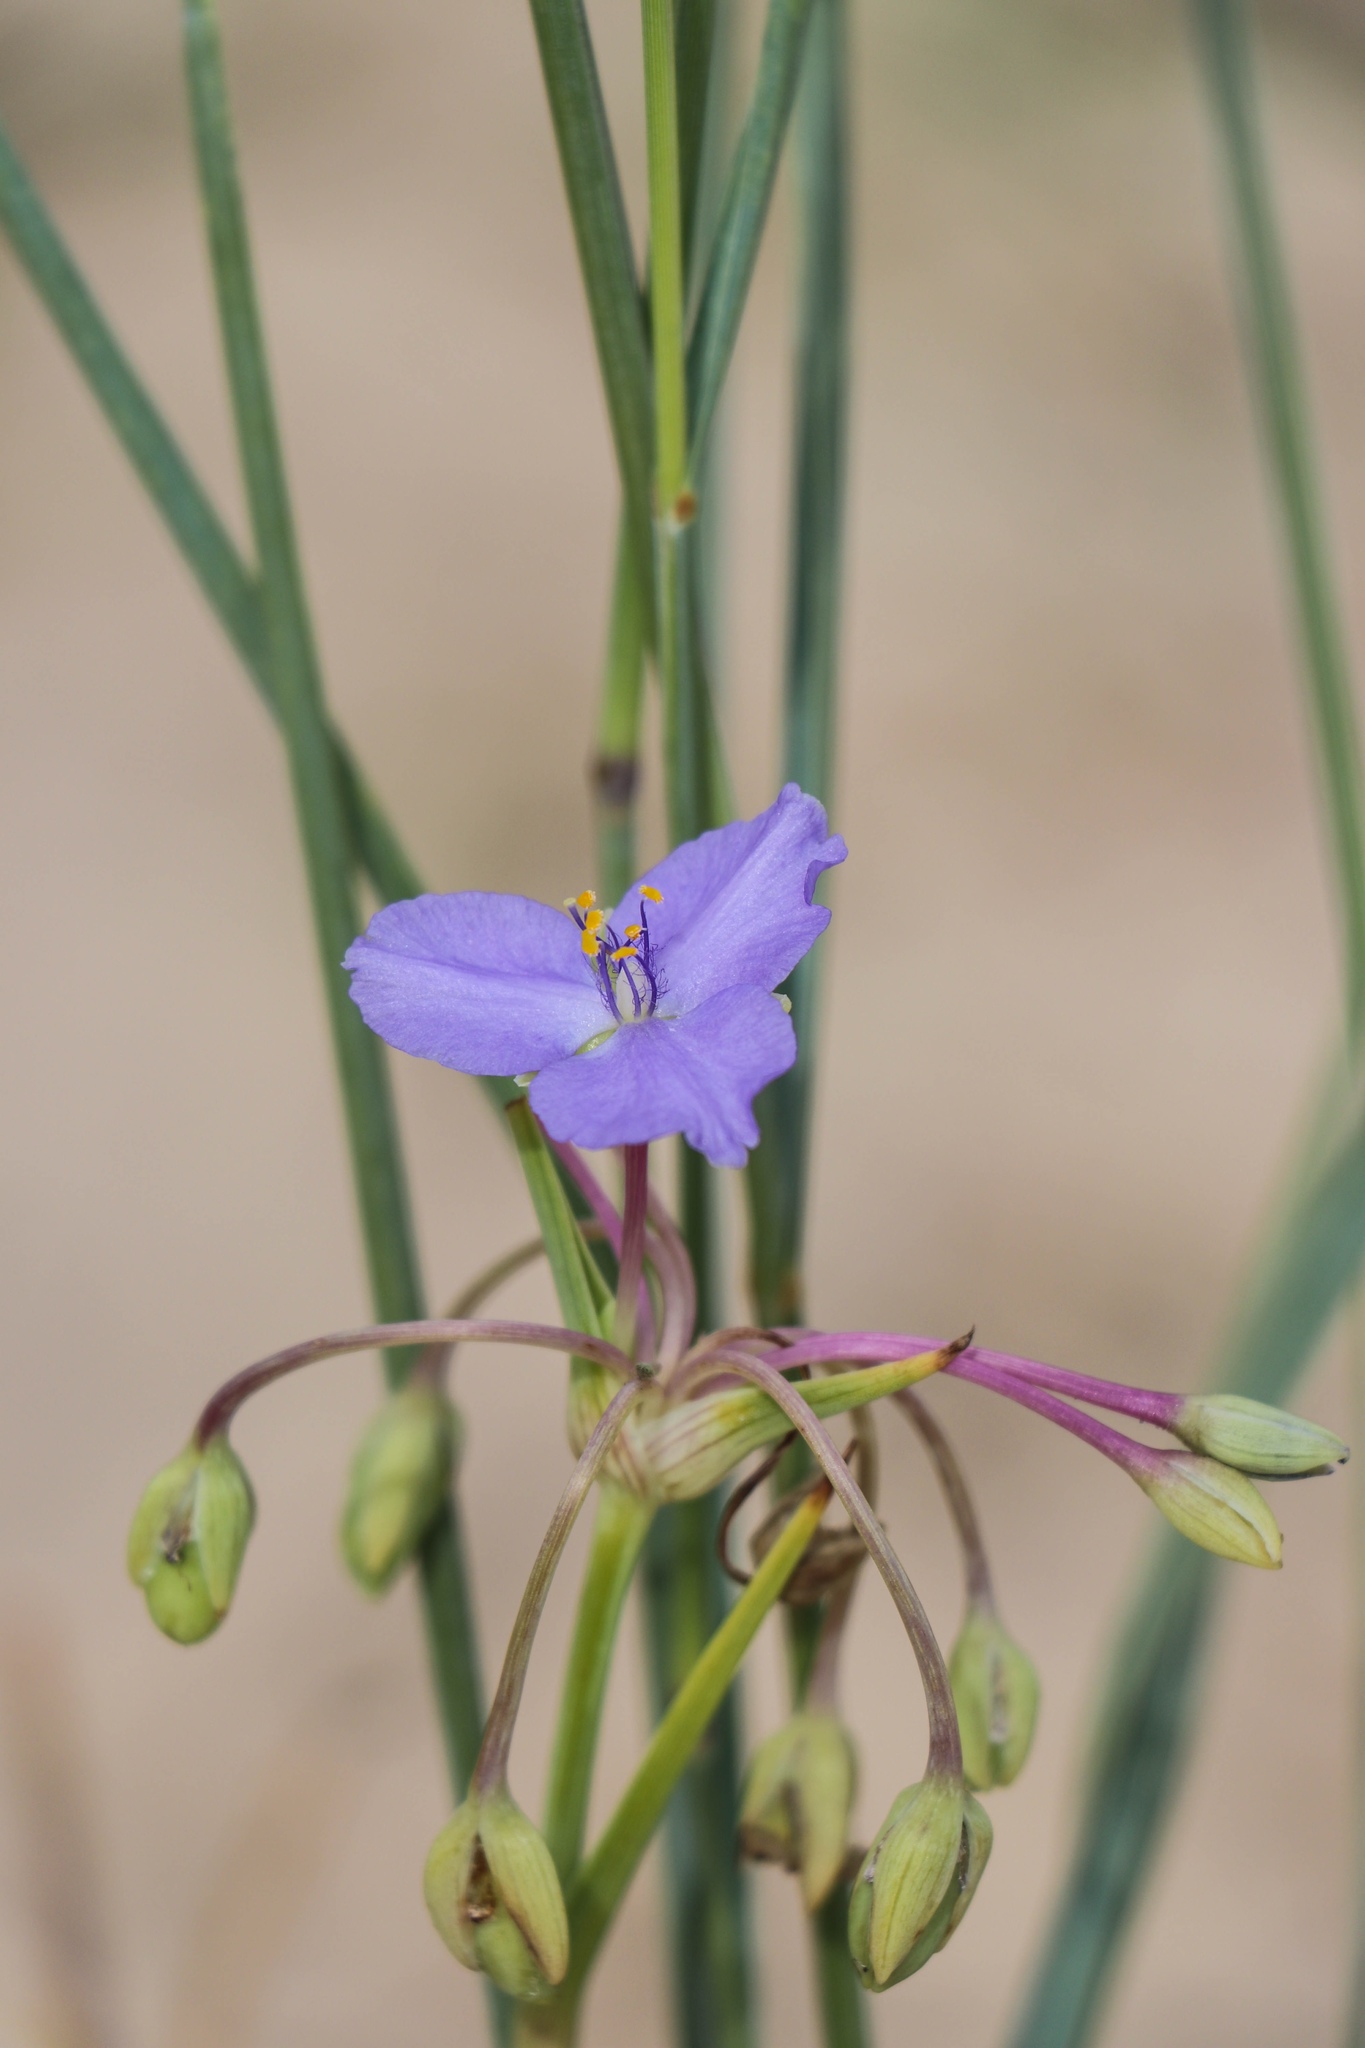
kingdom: Plantae
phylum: Tracheophyta
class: Liliopsida
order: Commelinales
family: Commelinaceae
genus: Tradescantia
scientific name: Tradescantia occidentalis
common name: Prairie spiderwort
